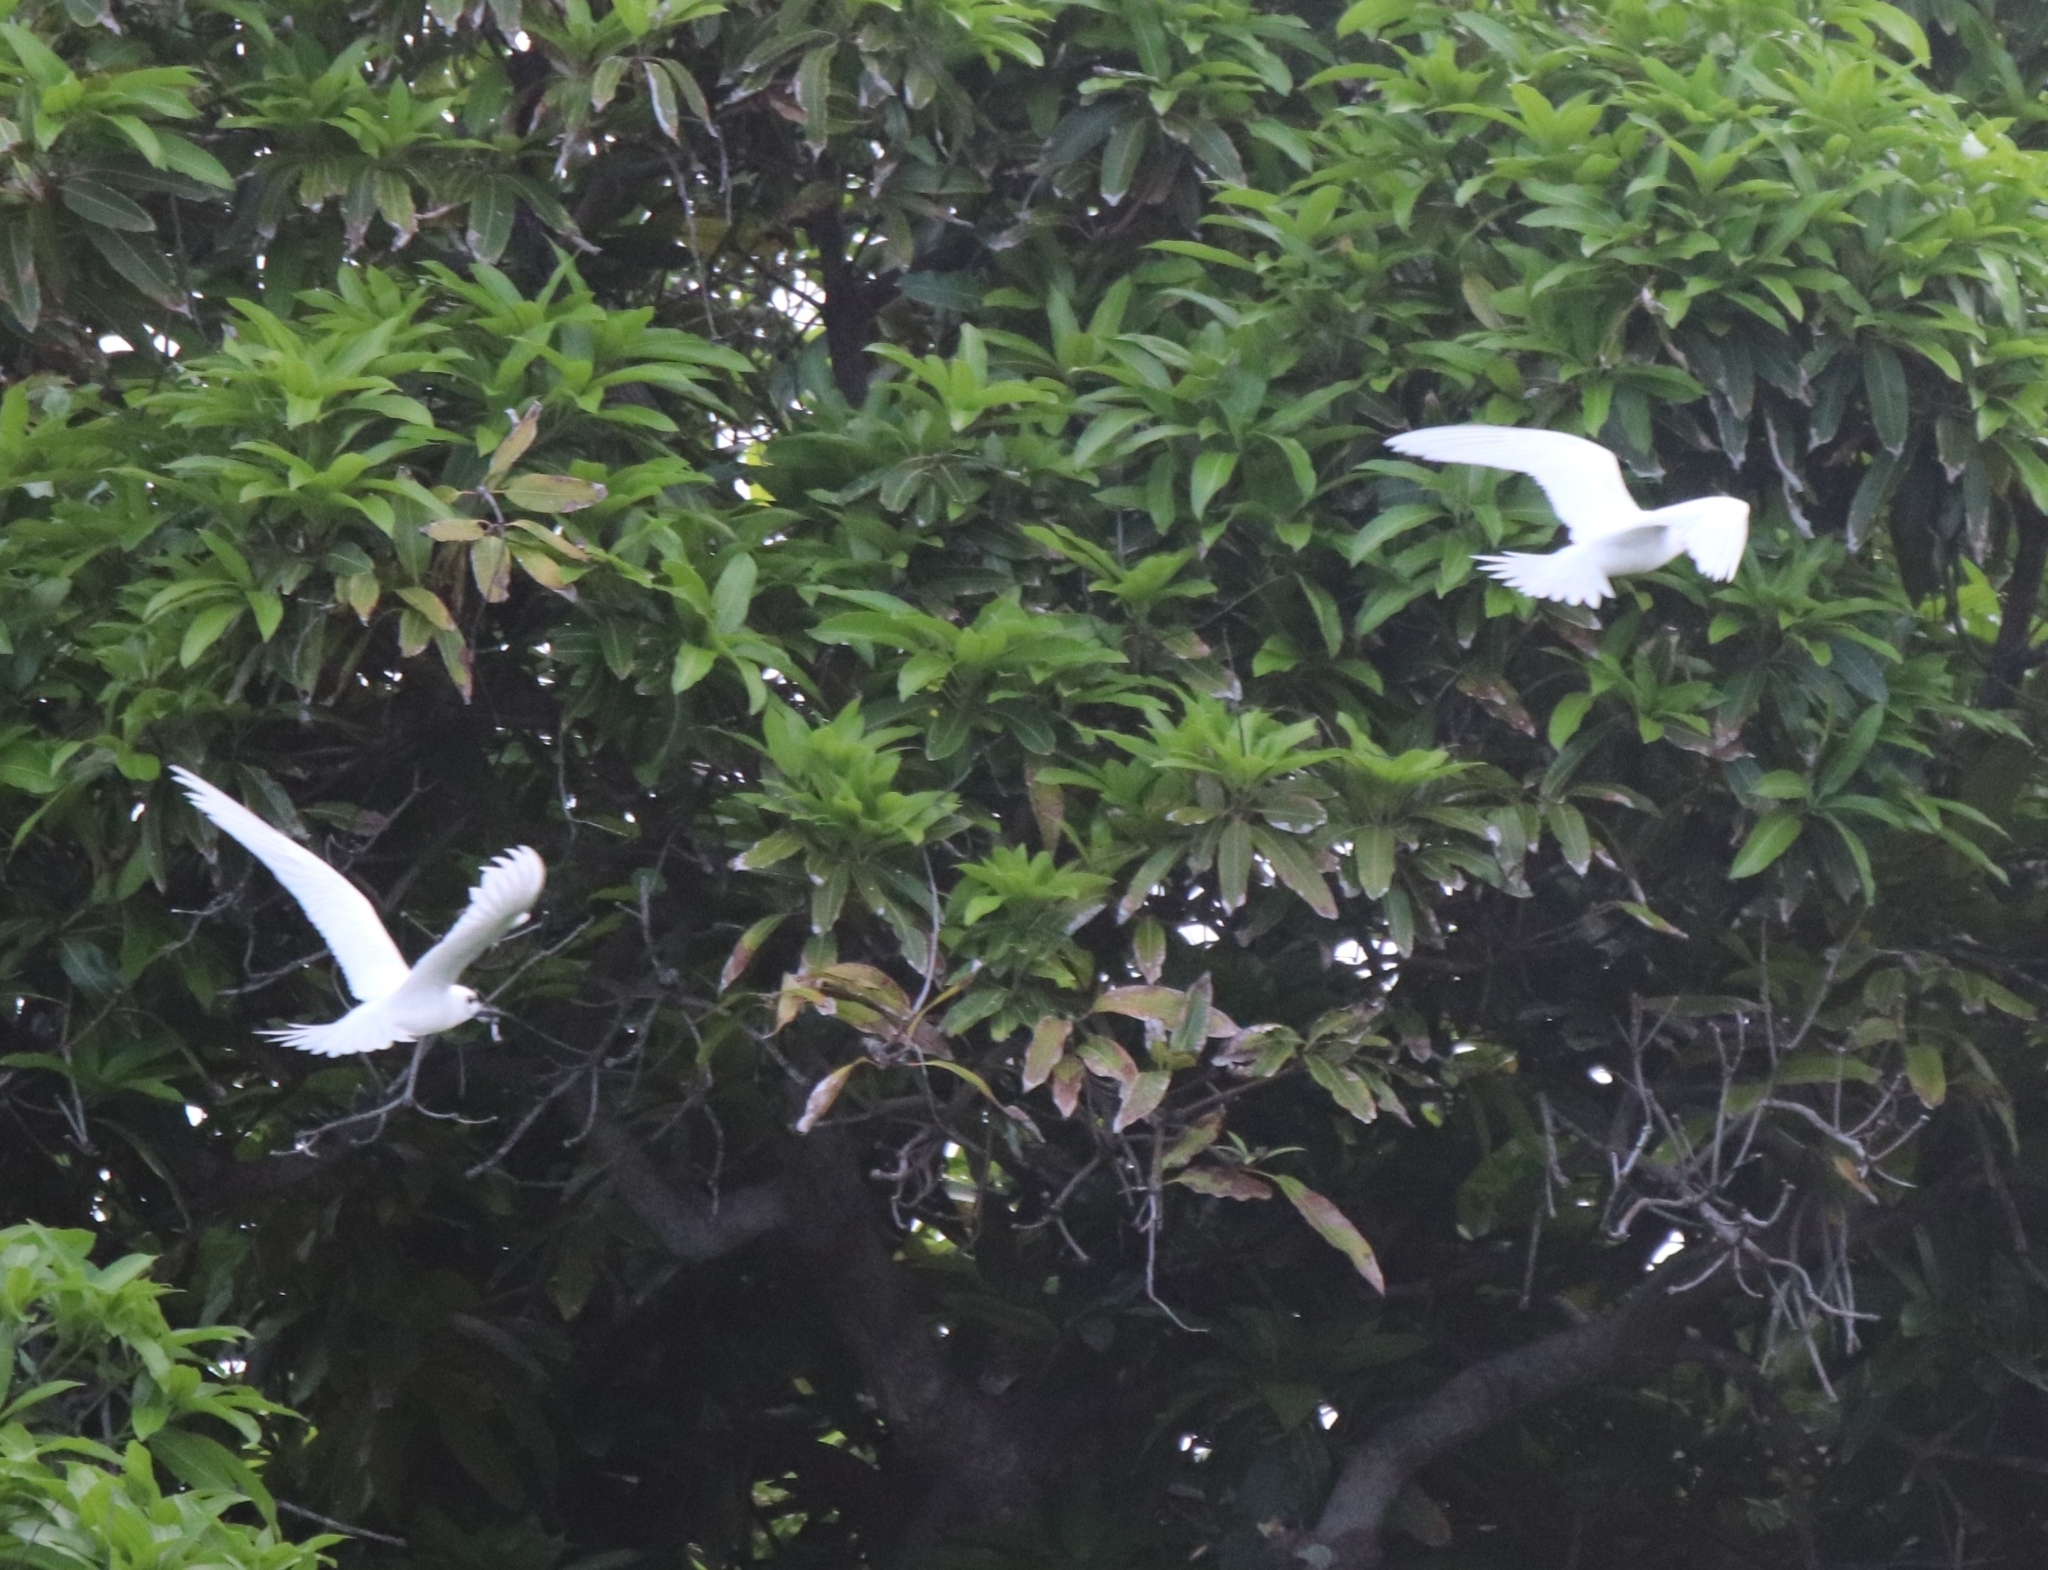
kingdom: Animalia
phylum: Chordata
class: Aves
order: Charadriiformes
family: Laridae
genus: Gygis
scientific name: Gygis alba
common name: White tern
